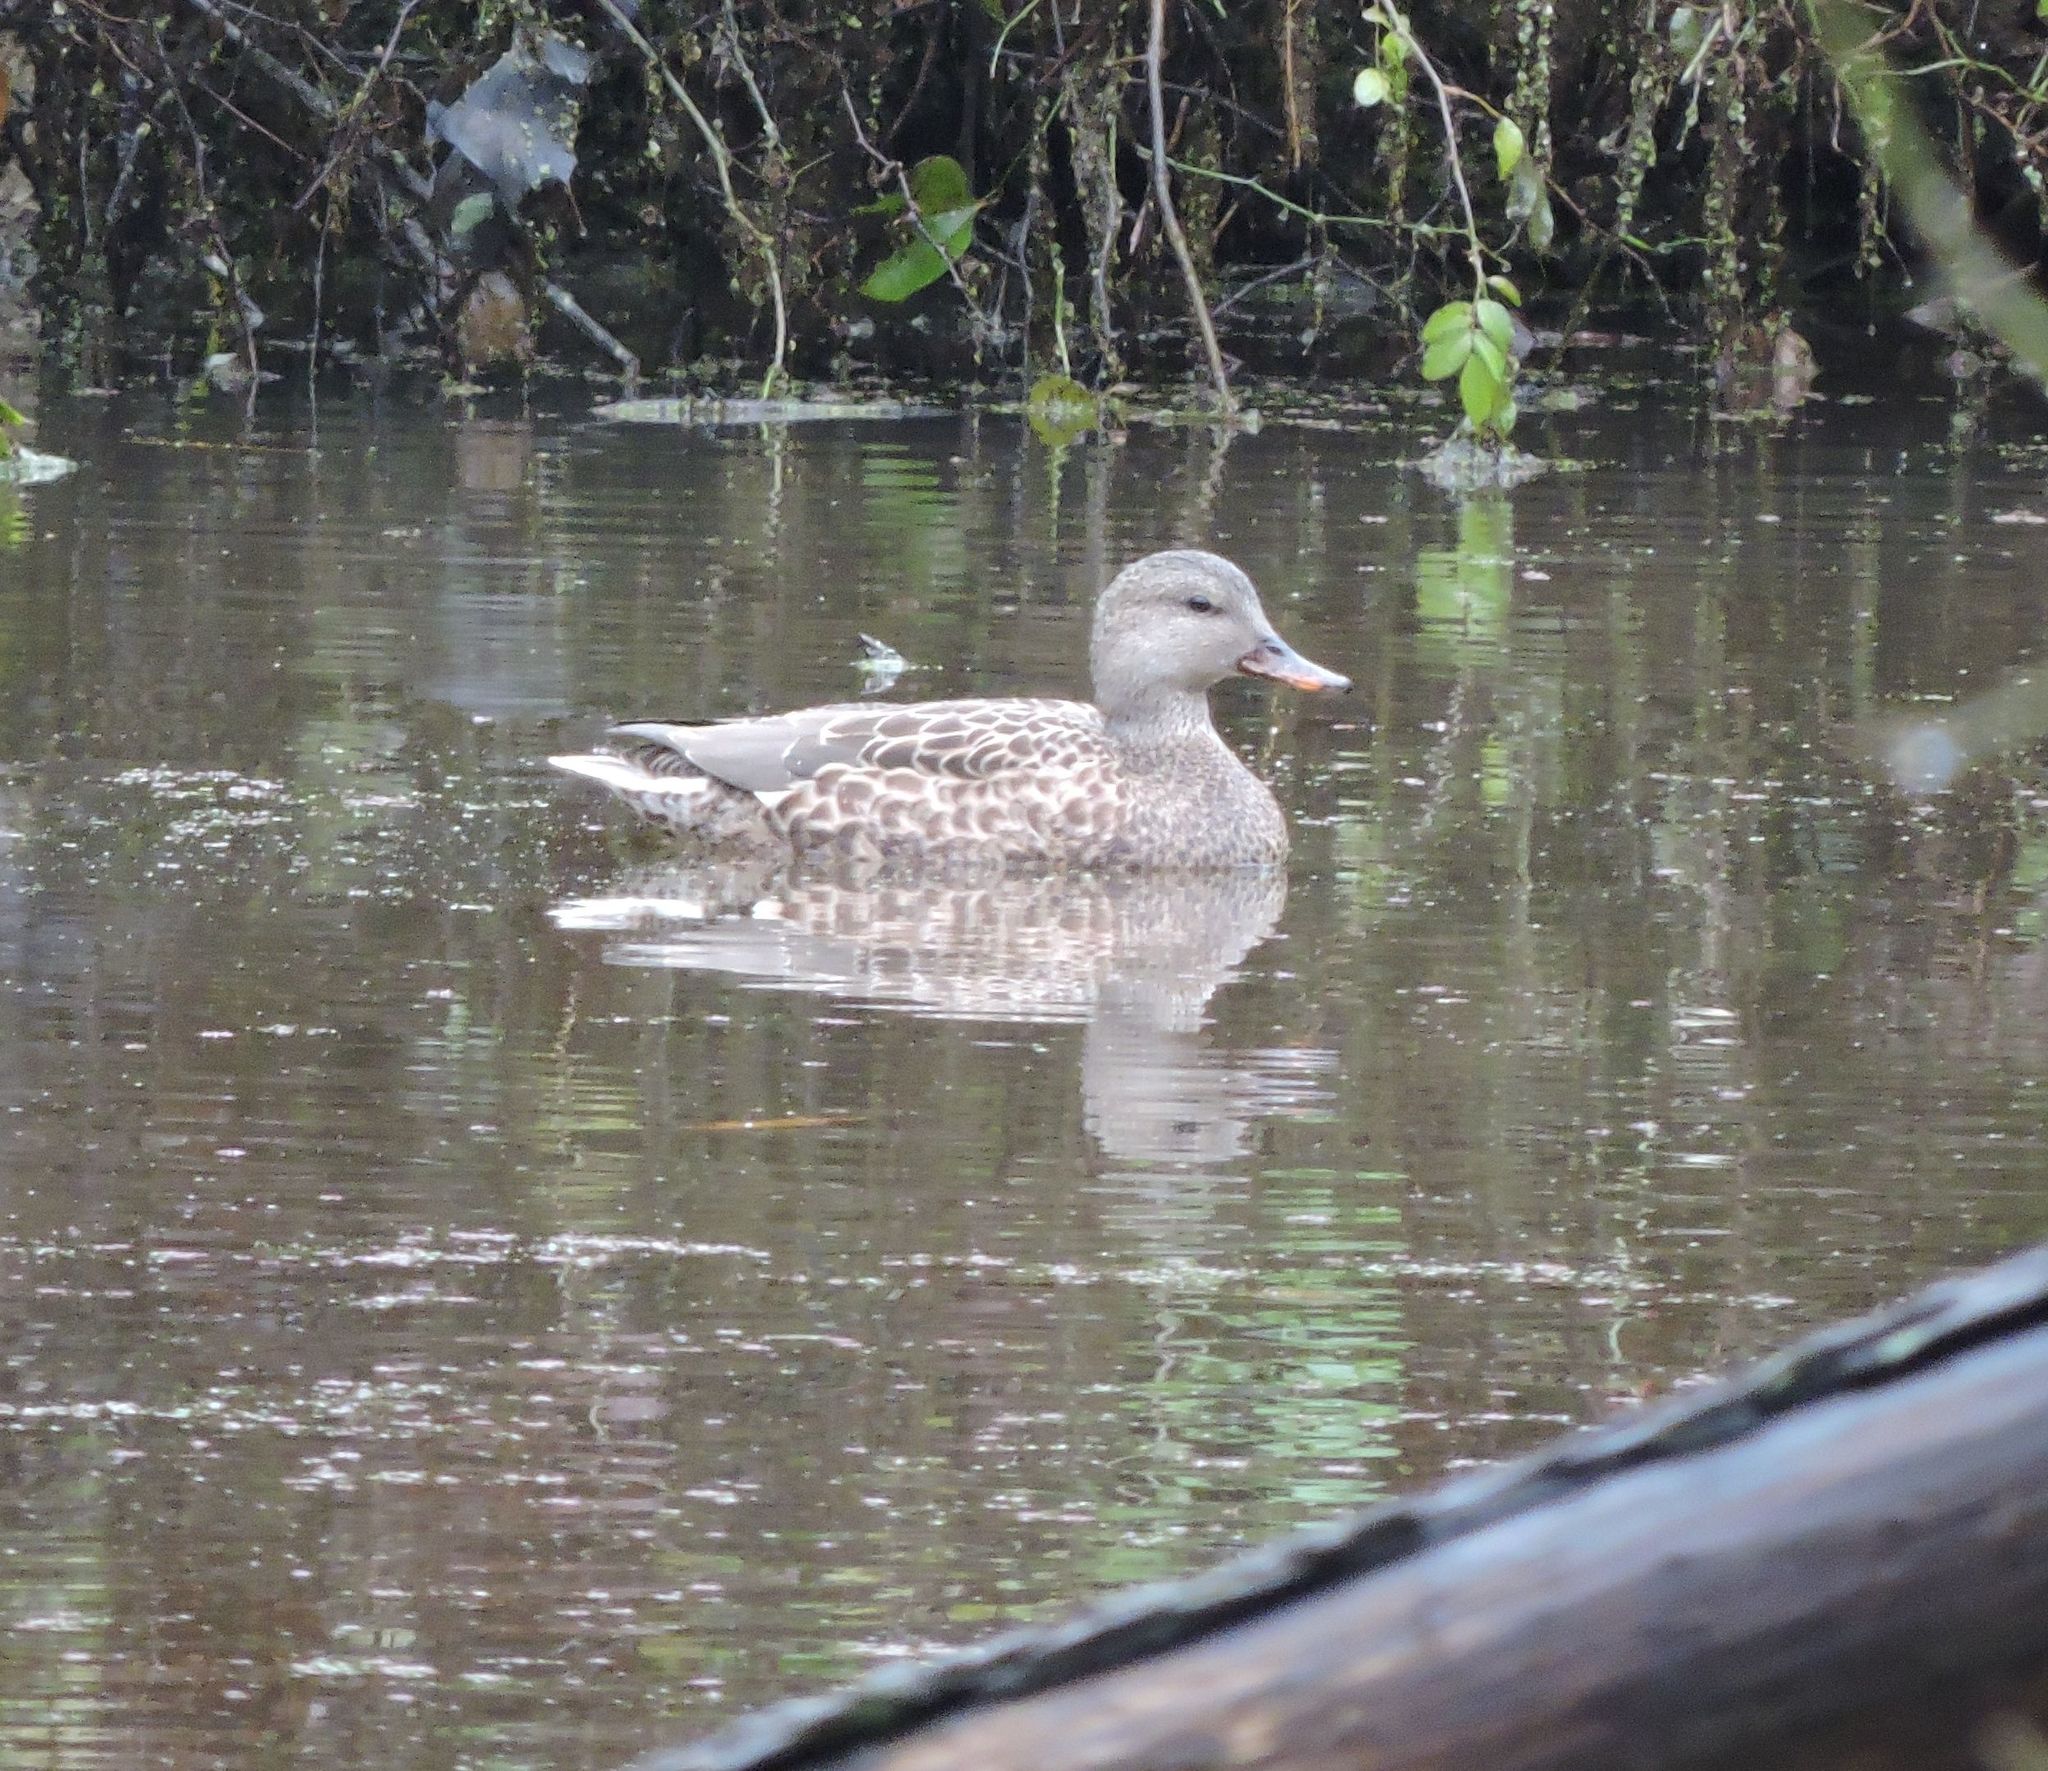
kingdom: Animalia
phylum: Chordata
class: Aves
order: Anseriformes
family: Anatidae
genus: Mareca
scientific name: Mareca strepera
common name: Gadwall
